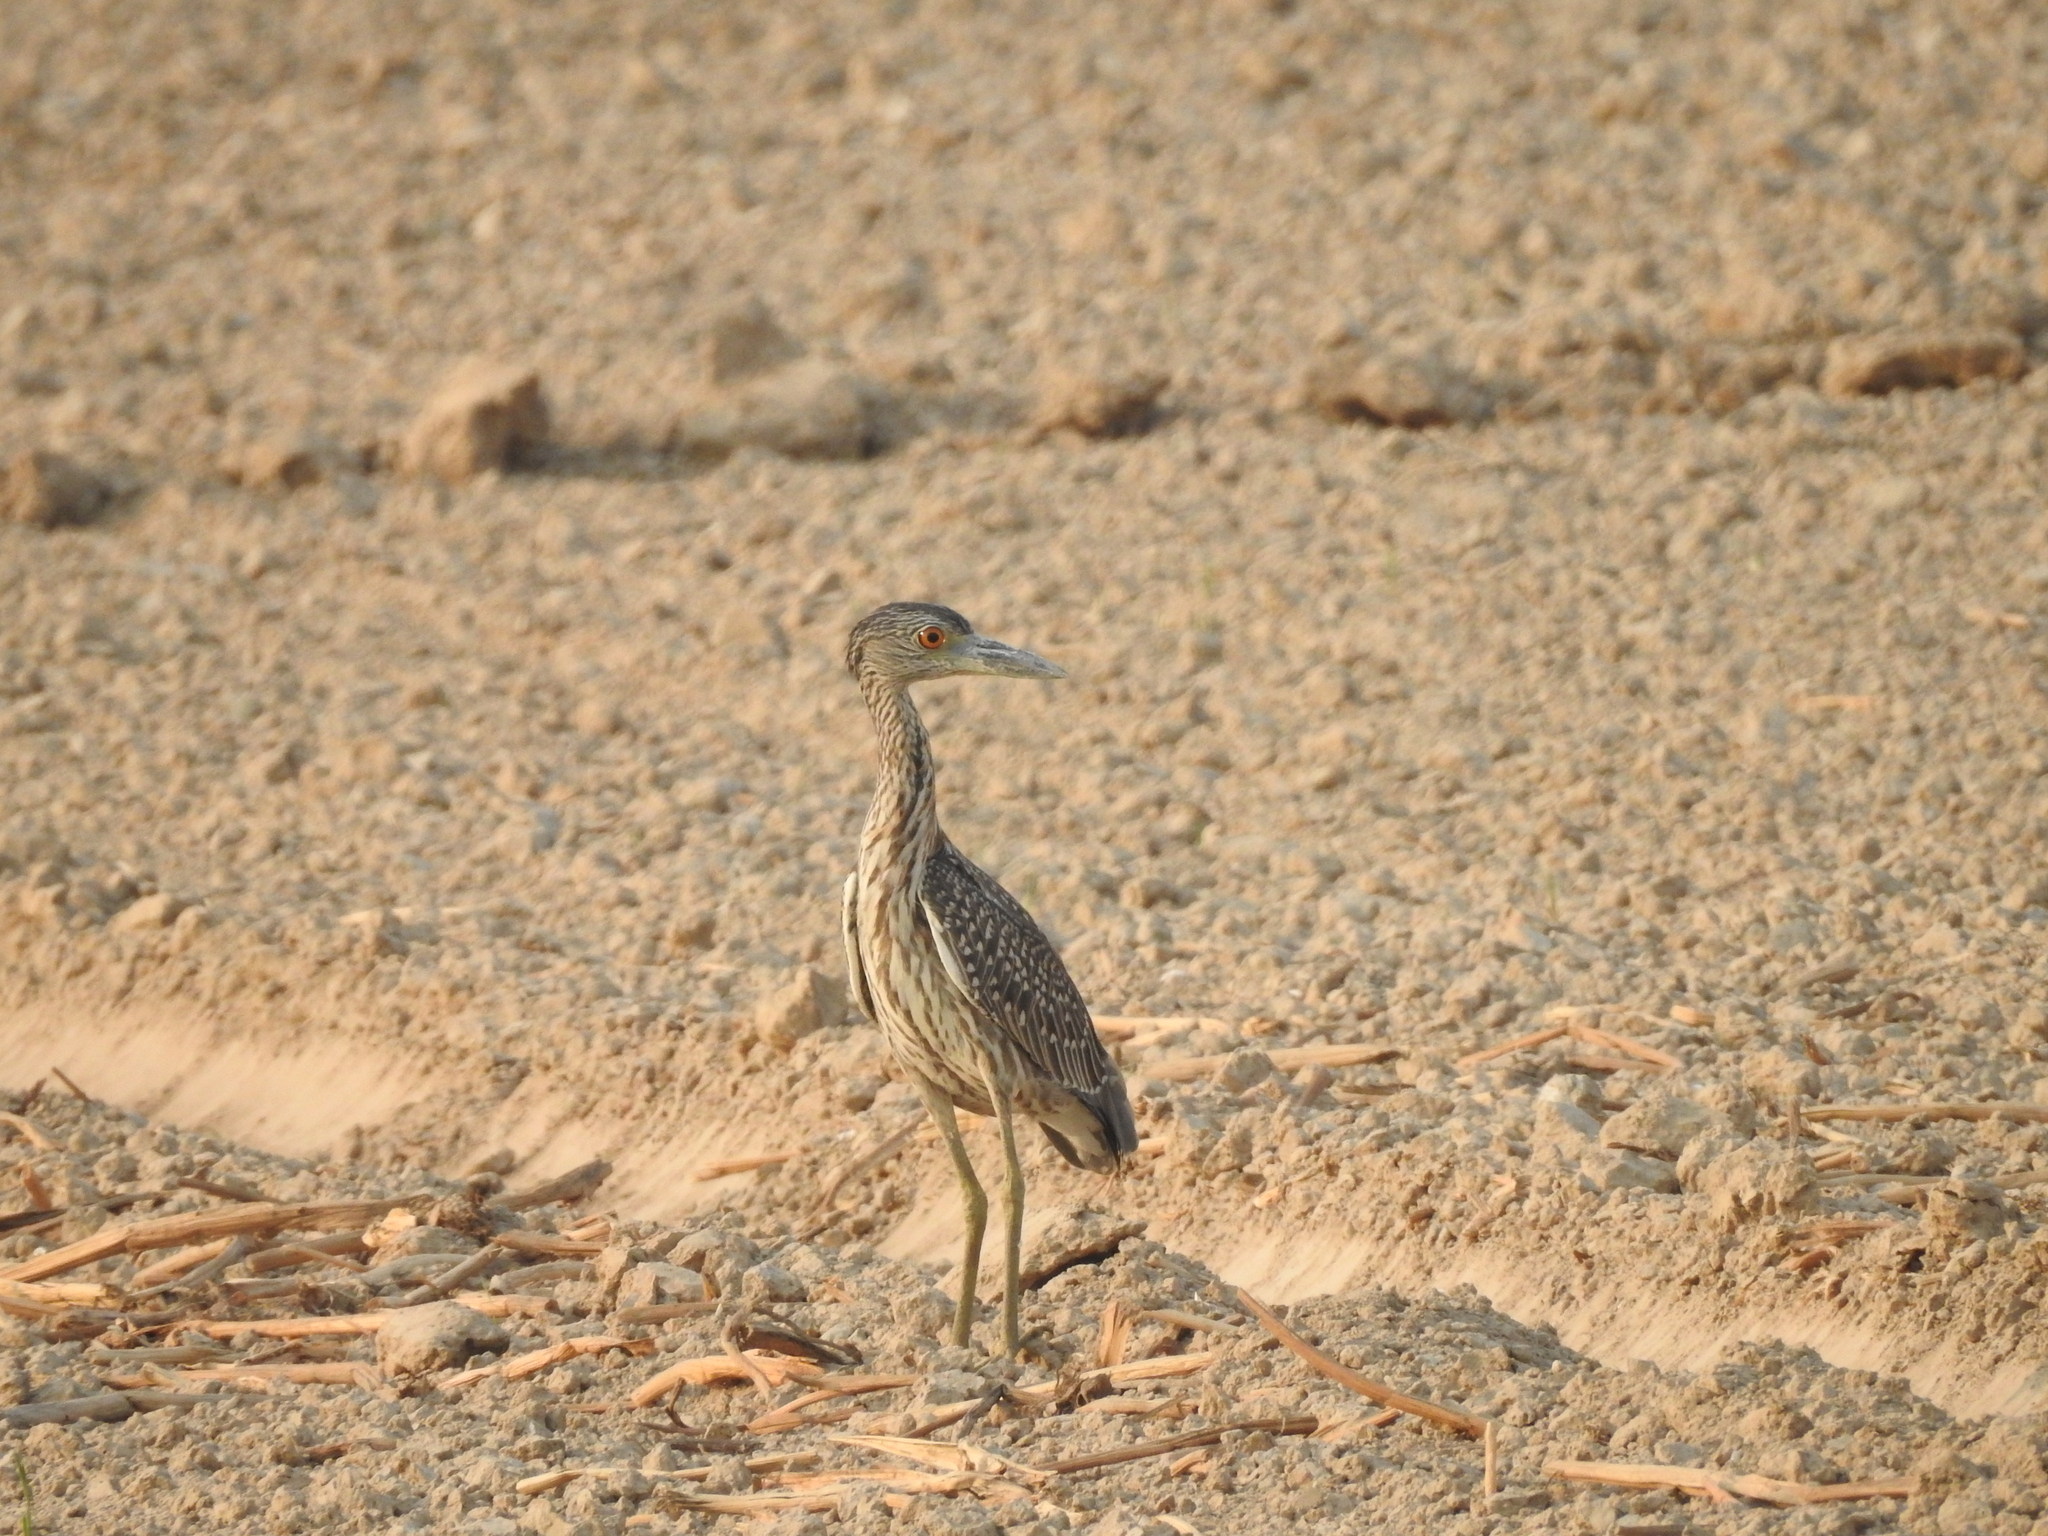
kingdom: Animalia
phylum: Chordata
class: Aves
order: Pelecaniformes
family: Ardeidae
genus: Nyctanassa
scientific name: Nyctanassa violacea
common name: Yellow-crowned night heron
